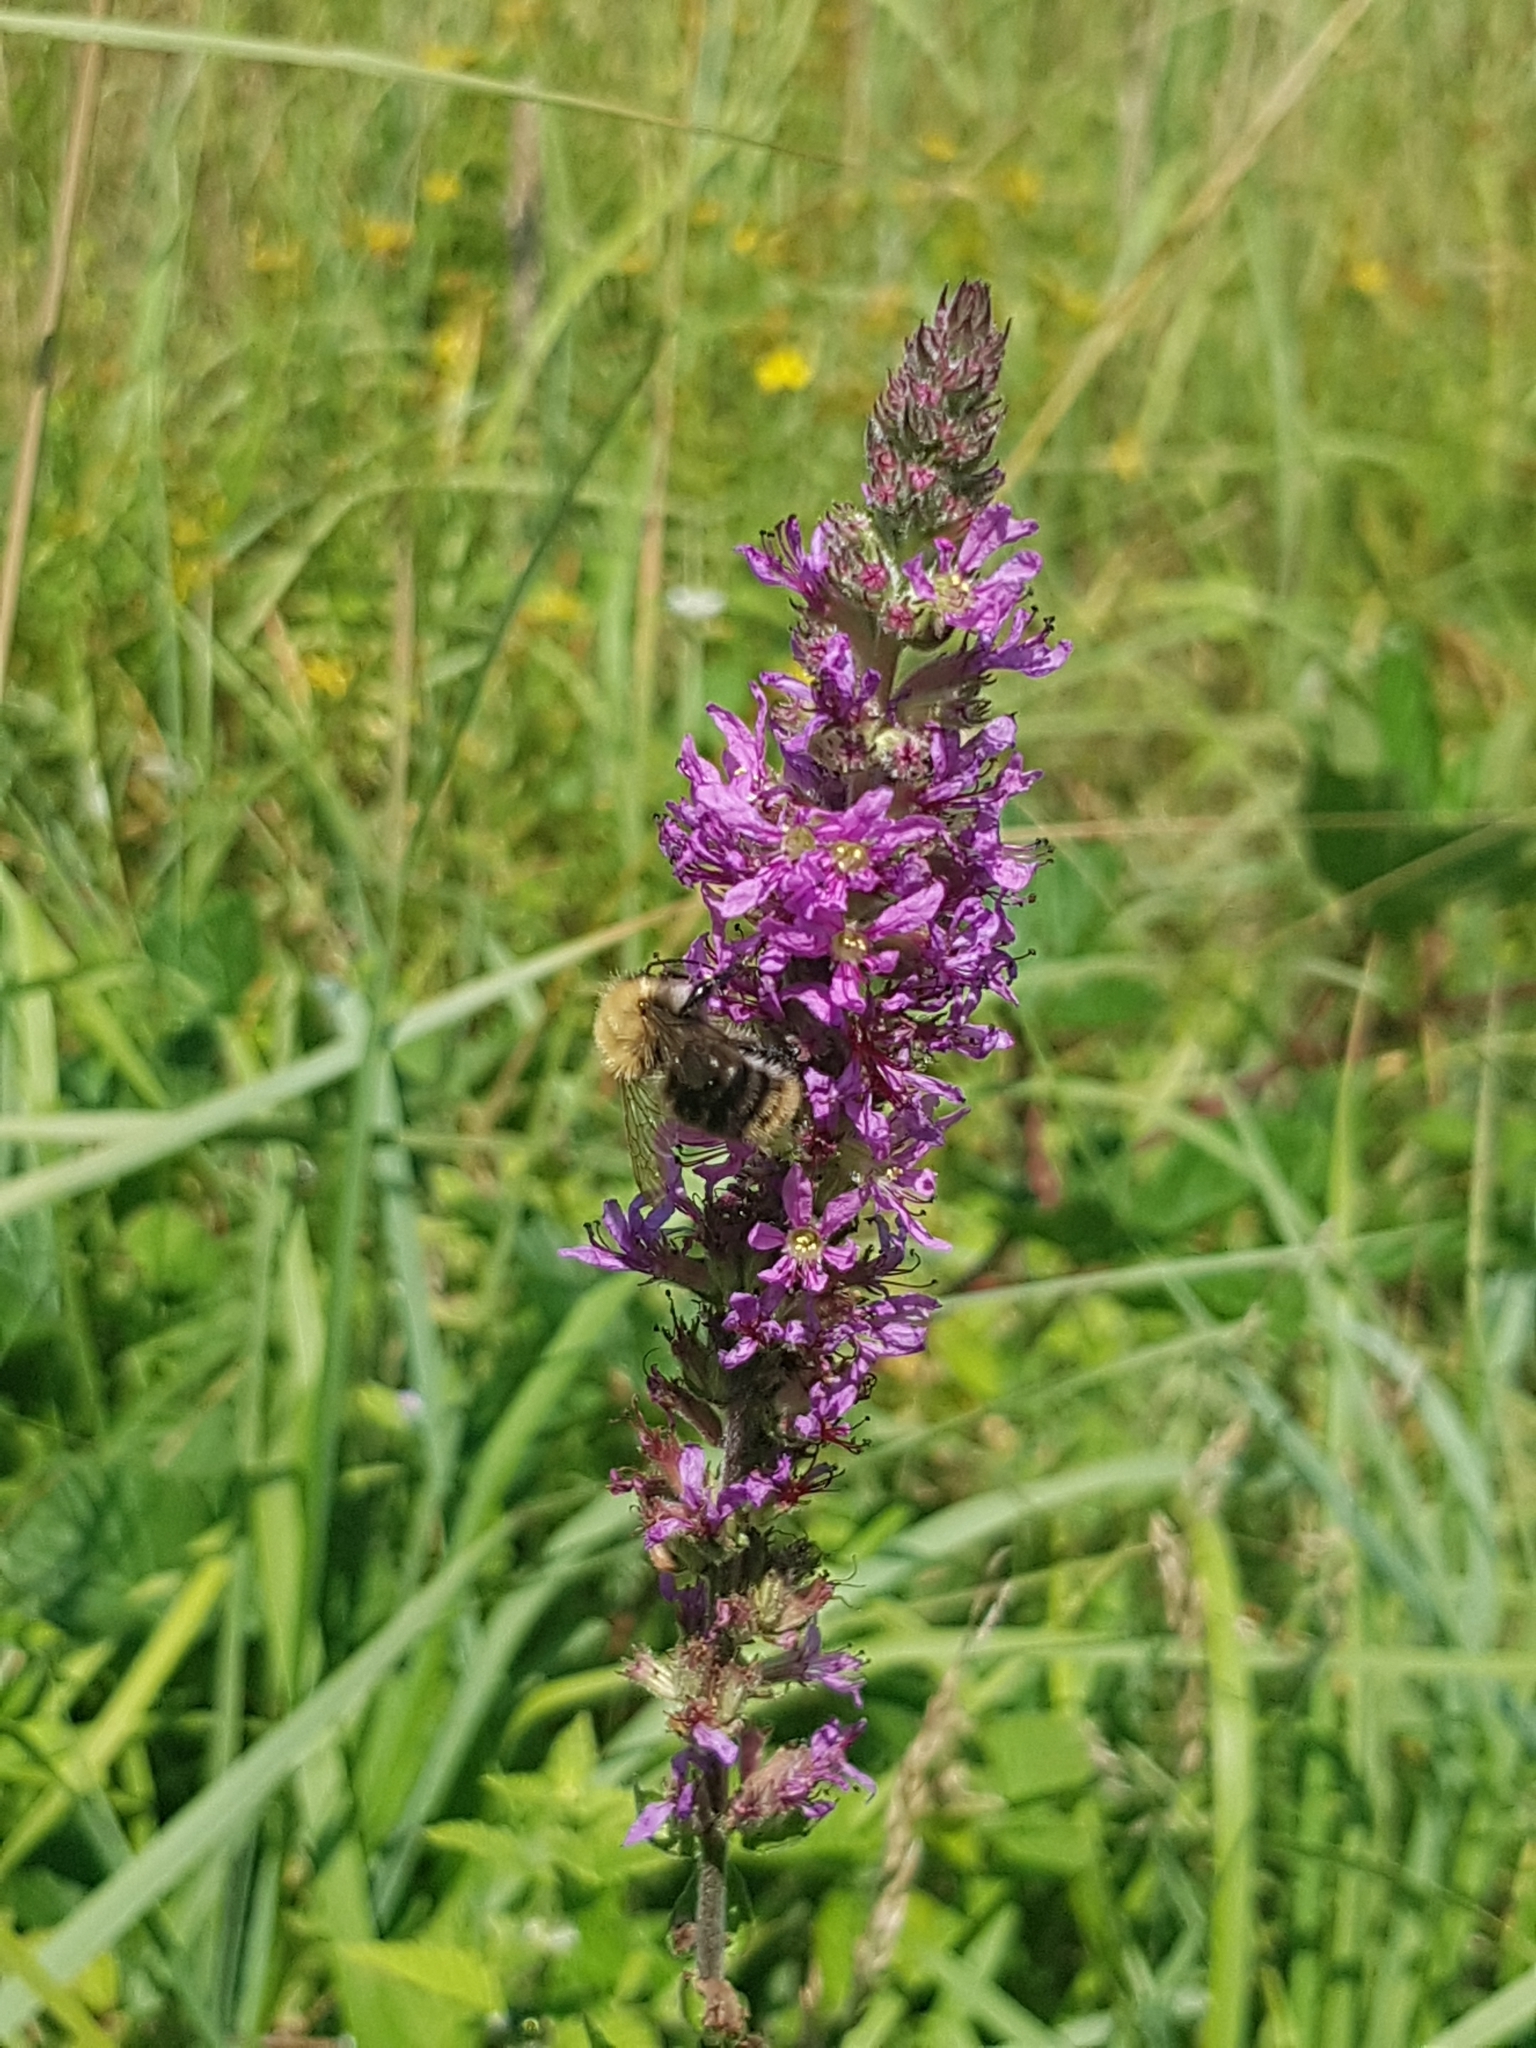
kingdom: Plantae
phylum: Tracheophyta
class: Magnoliopsida
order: Myrtales
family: Lythraceae
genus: Lythrum
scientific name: Lythrum salicaria
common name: Purple loosestrife
